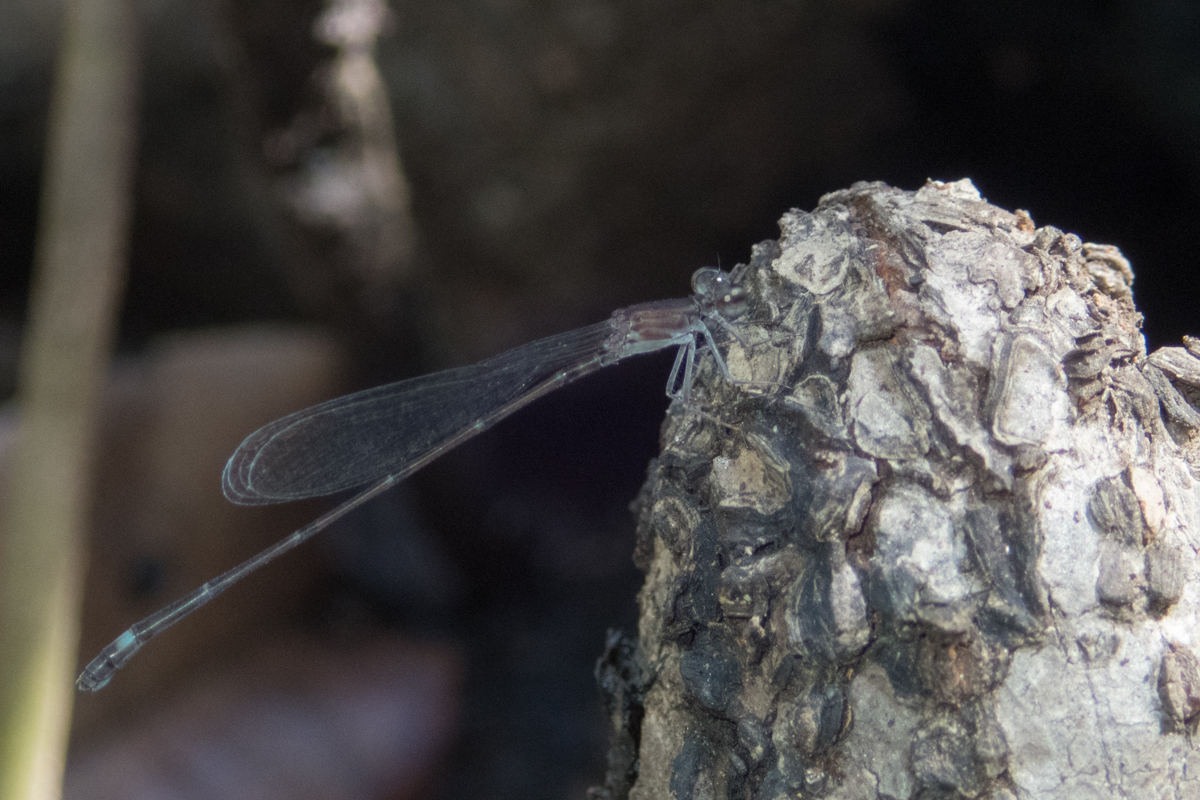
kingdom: Animalia
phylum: Arthropoda
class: Insecta
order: Odonata
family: Coenagrionidae
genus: Mortonagrion
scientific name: Mortonagrion falcatum
